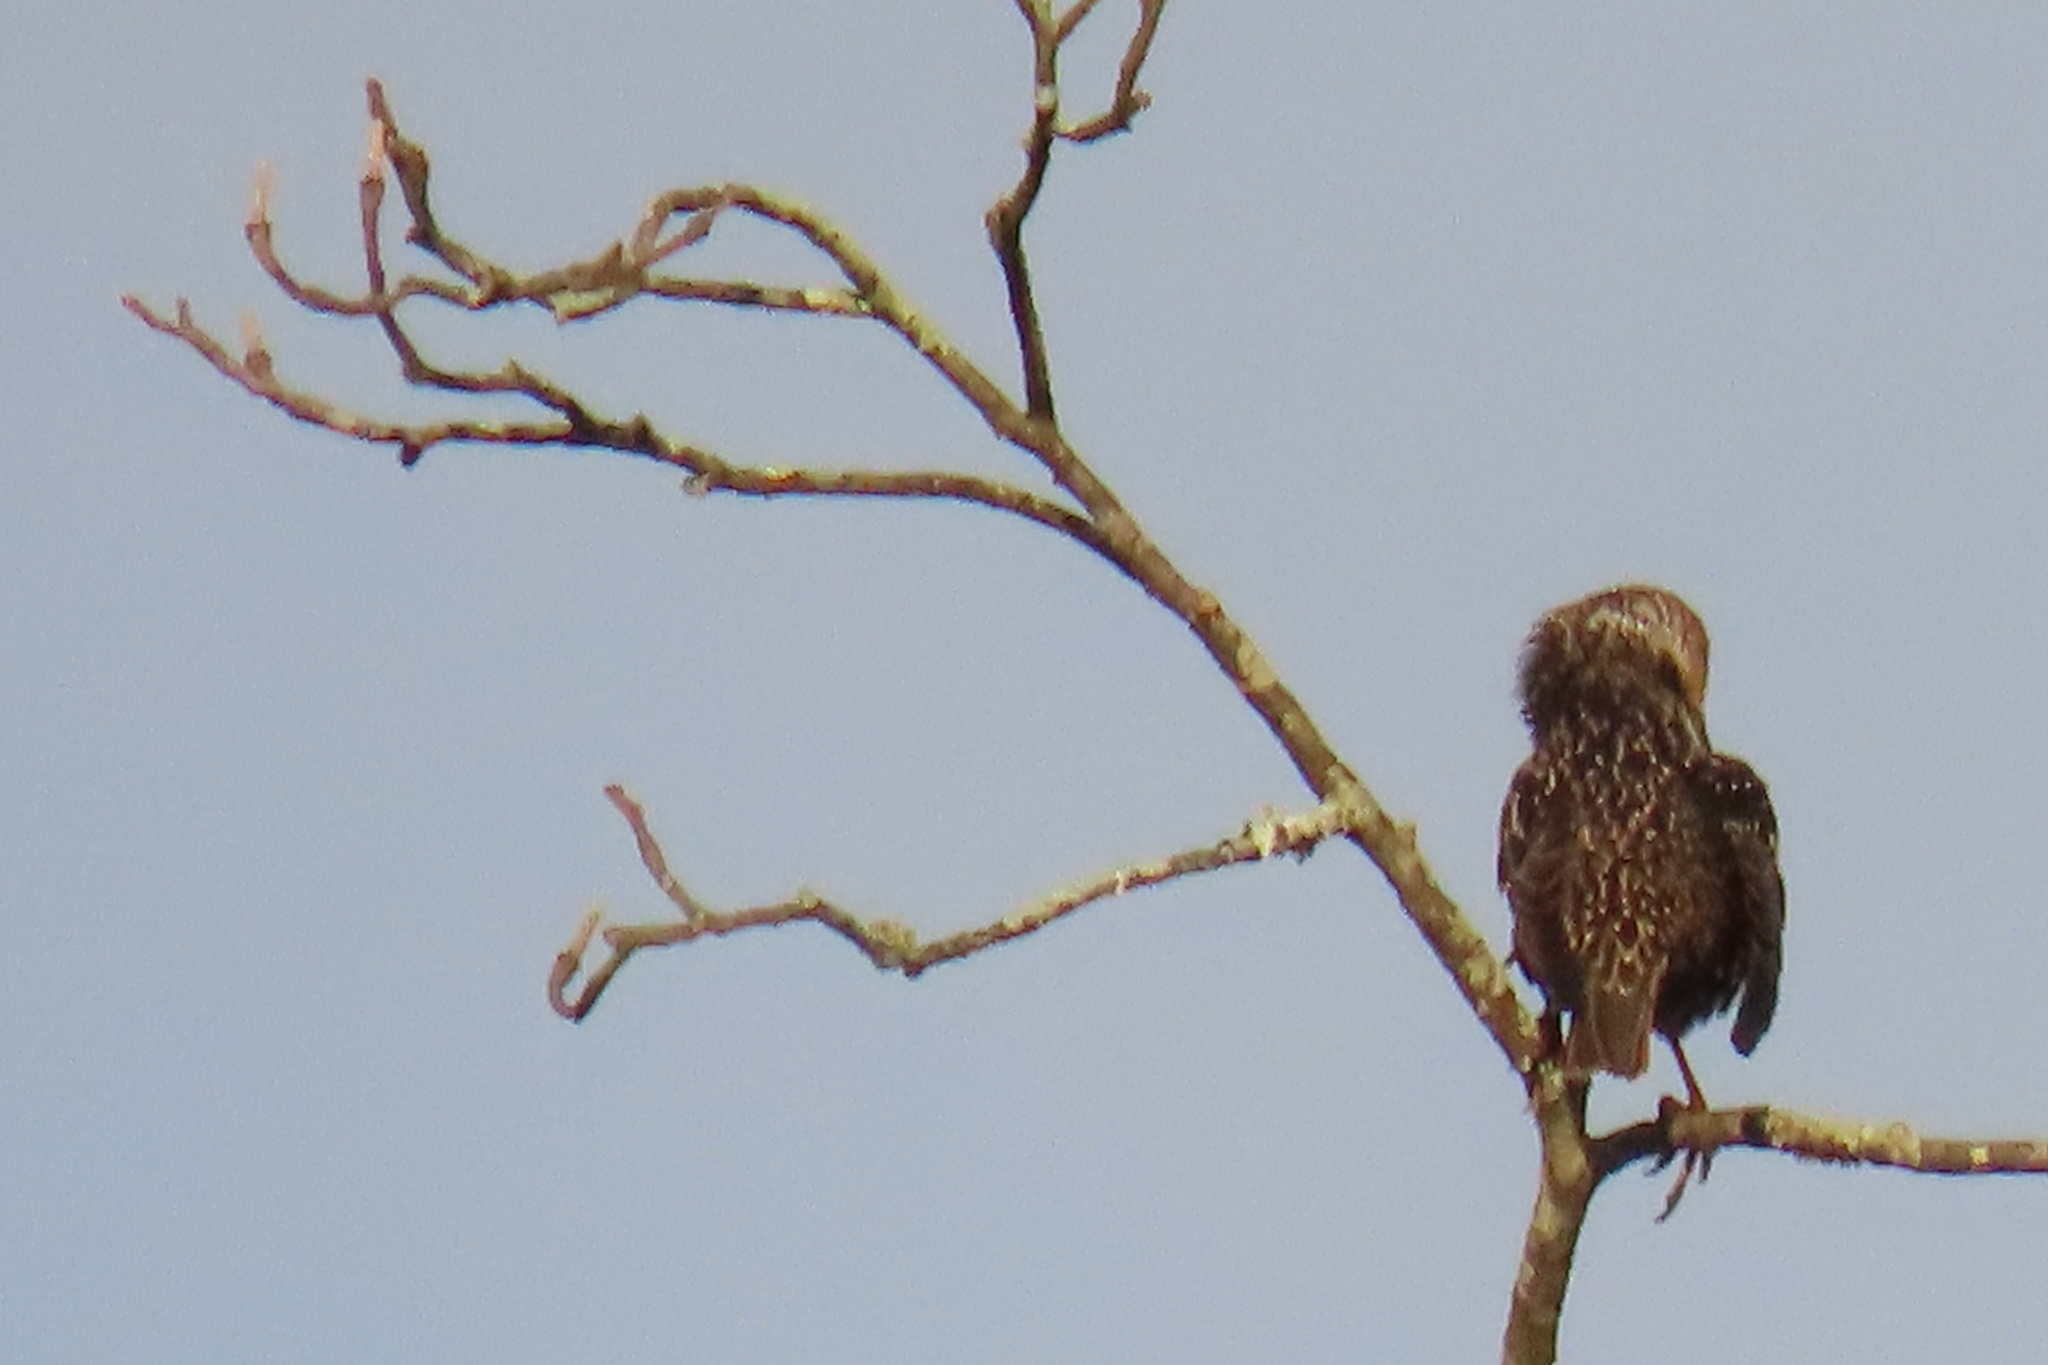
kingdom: Animalia
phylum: Chordata
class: Aves
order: Passeriformes
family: Sturnidae
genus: Sturnus
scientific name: Sturnus vulgaris
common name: Common starling
